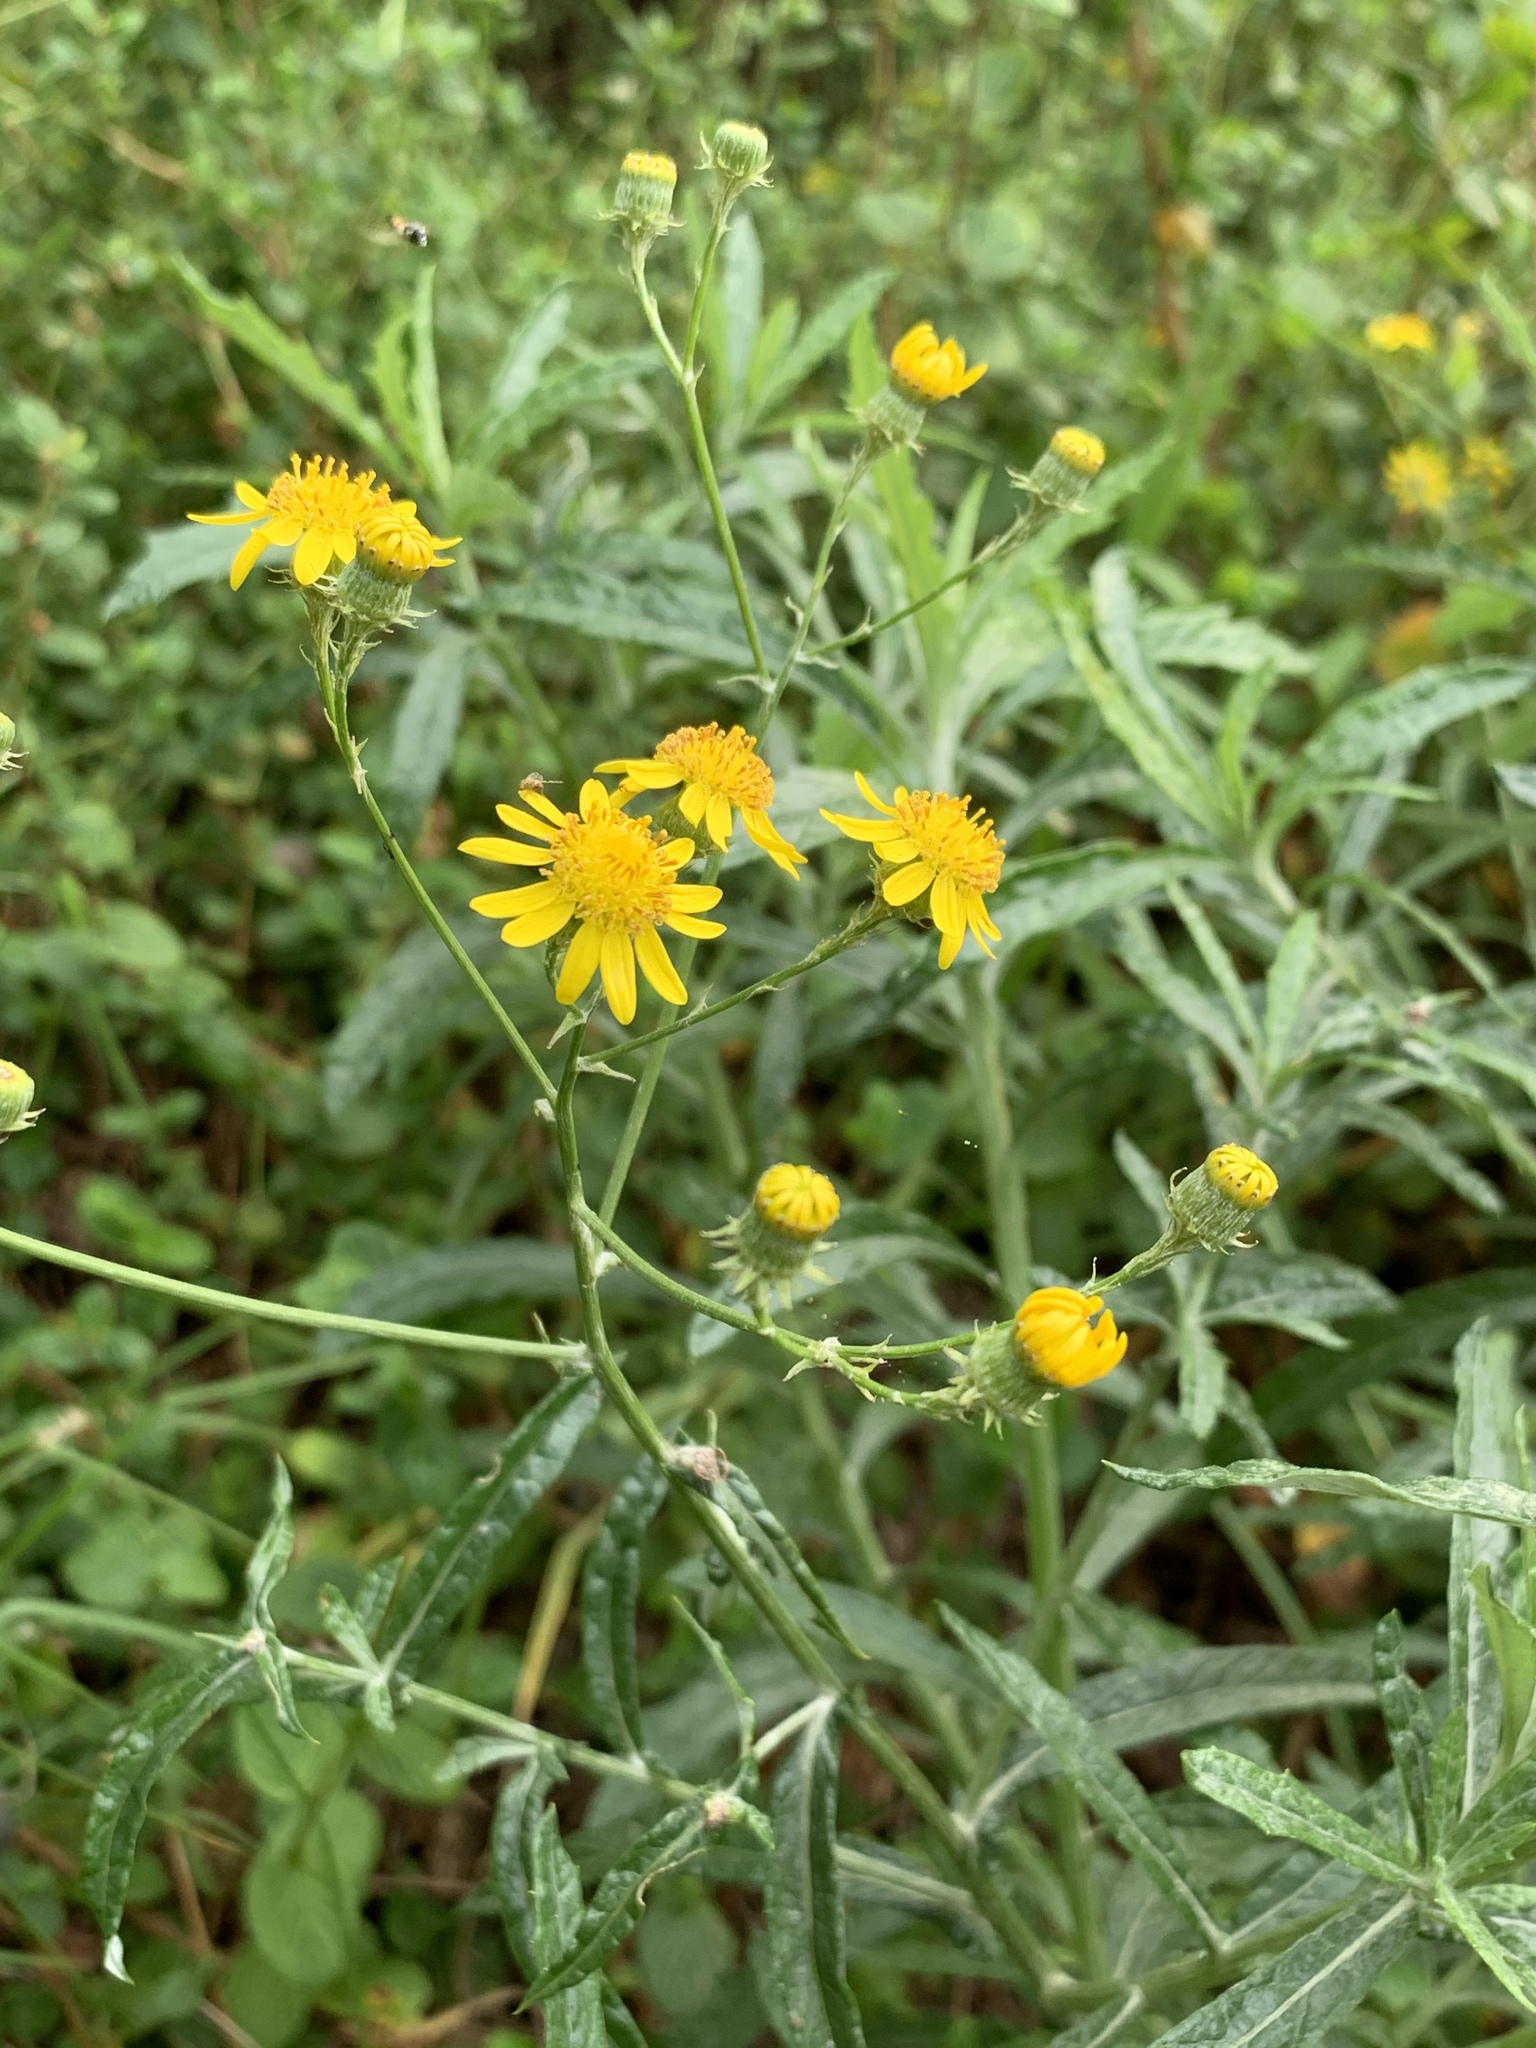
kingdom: Plantae
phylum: Tracheophyta
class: Magnoliopsida
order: Asterales
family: Asteraceae
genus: Senecio
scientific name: Senecio pterophorus
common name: Shoddy ragwort
